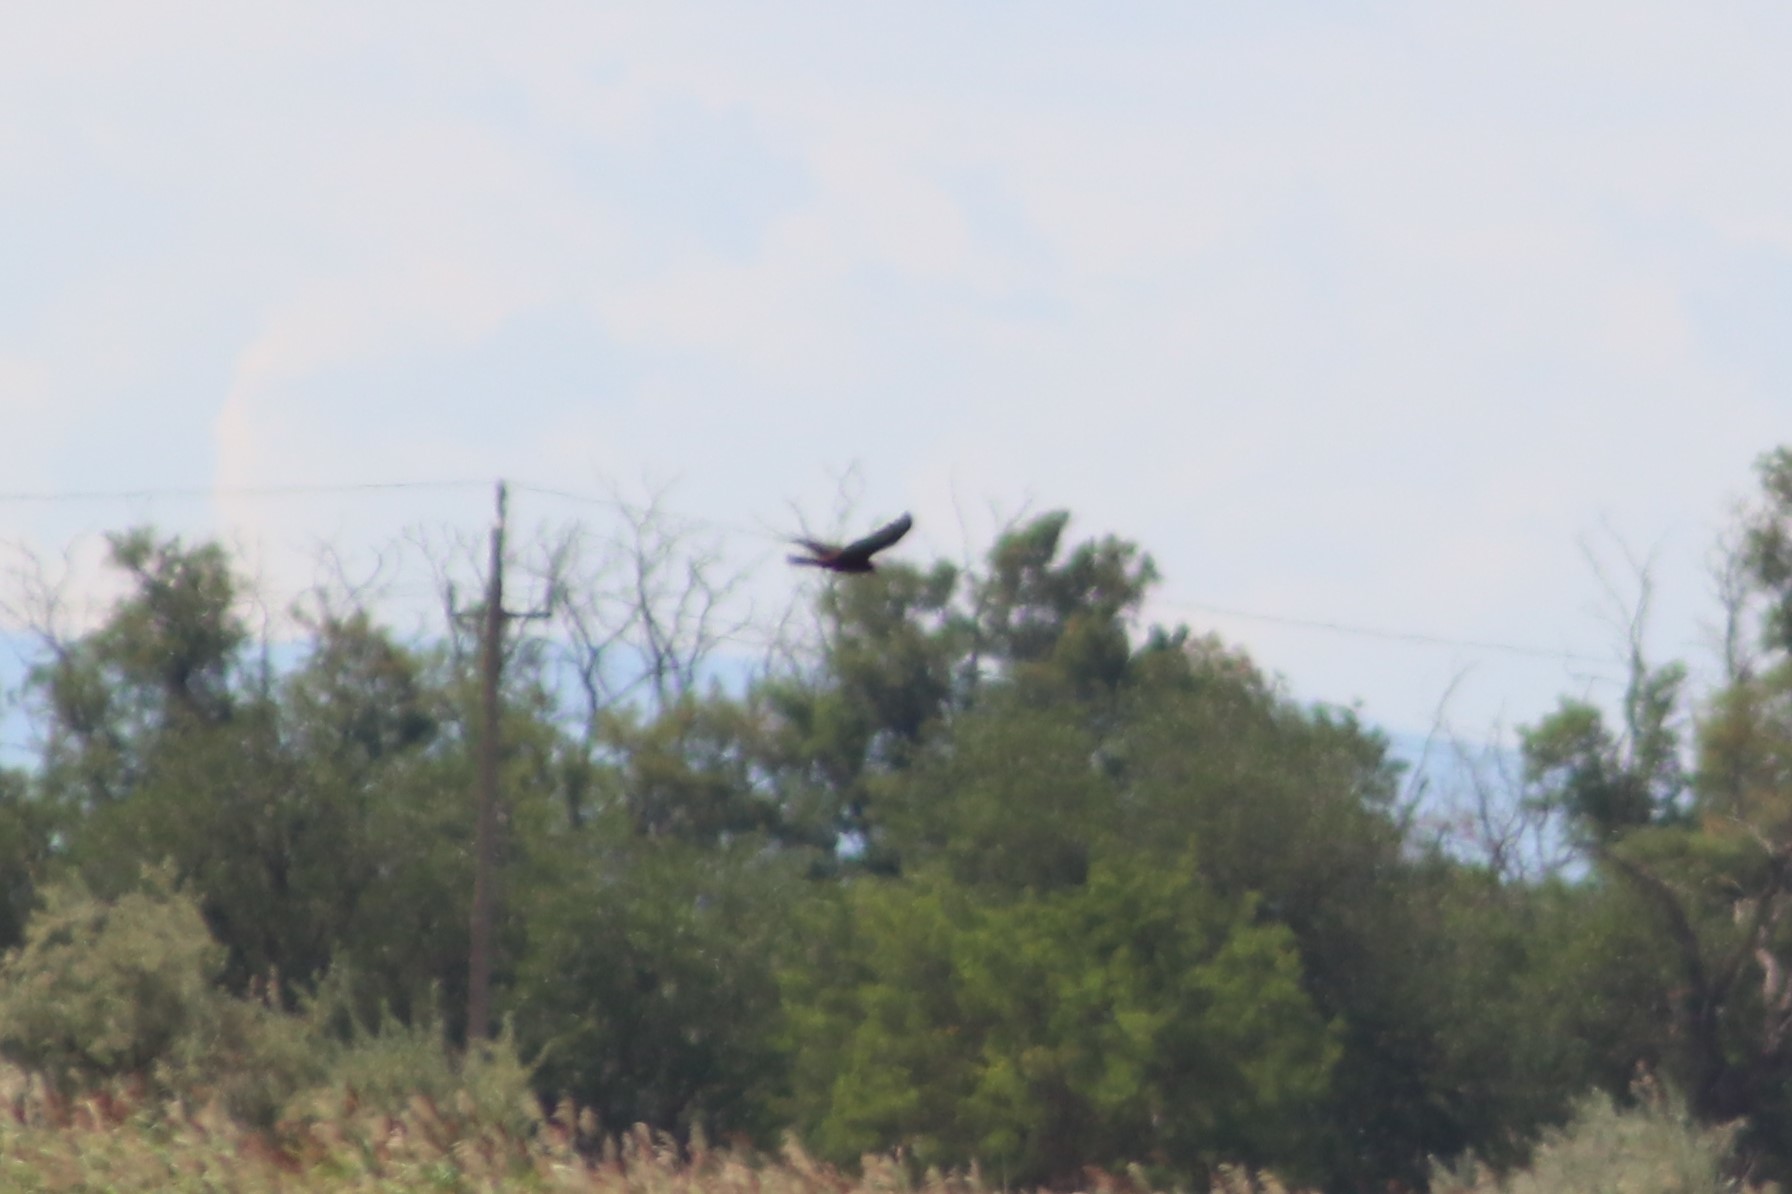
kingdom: Animalia
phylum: Chordata
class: Aves
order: Accipitriformes
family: Accipitridae
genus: Circus
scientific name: Circus aeruginosus
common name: Western marsh harrier
